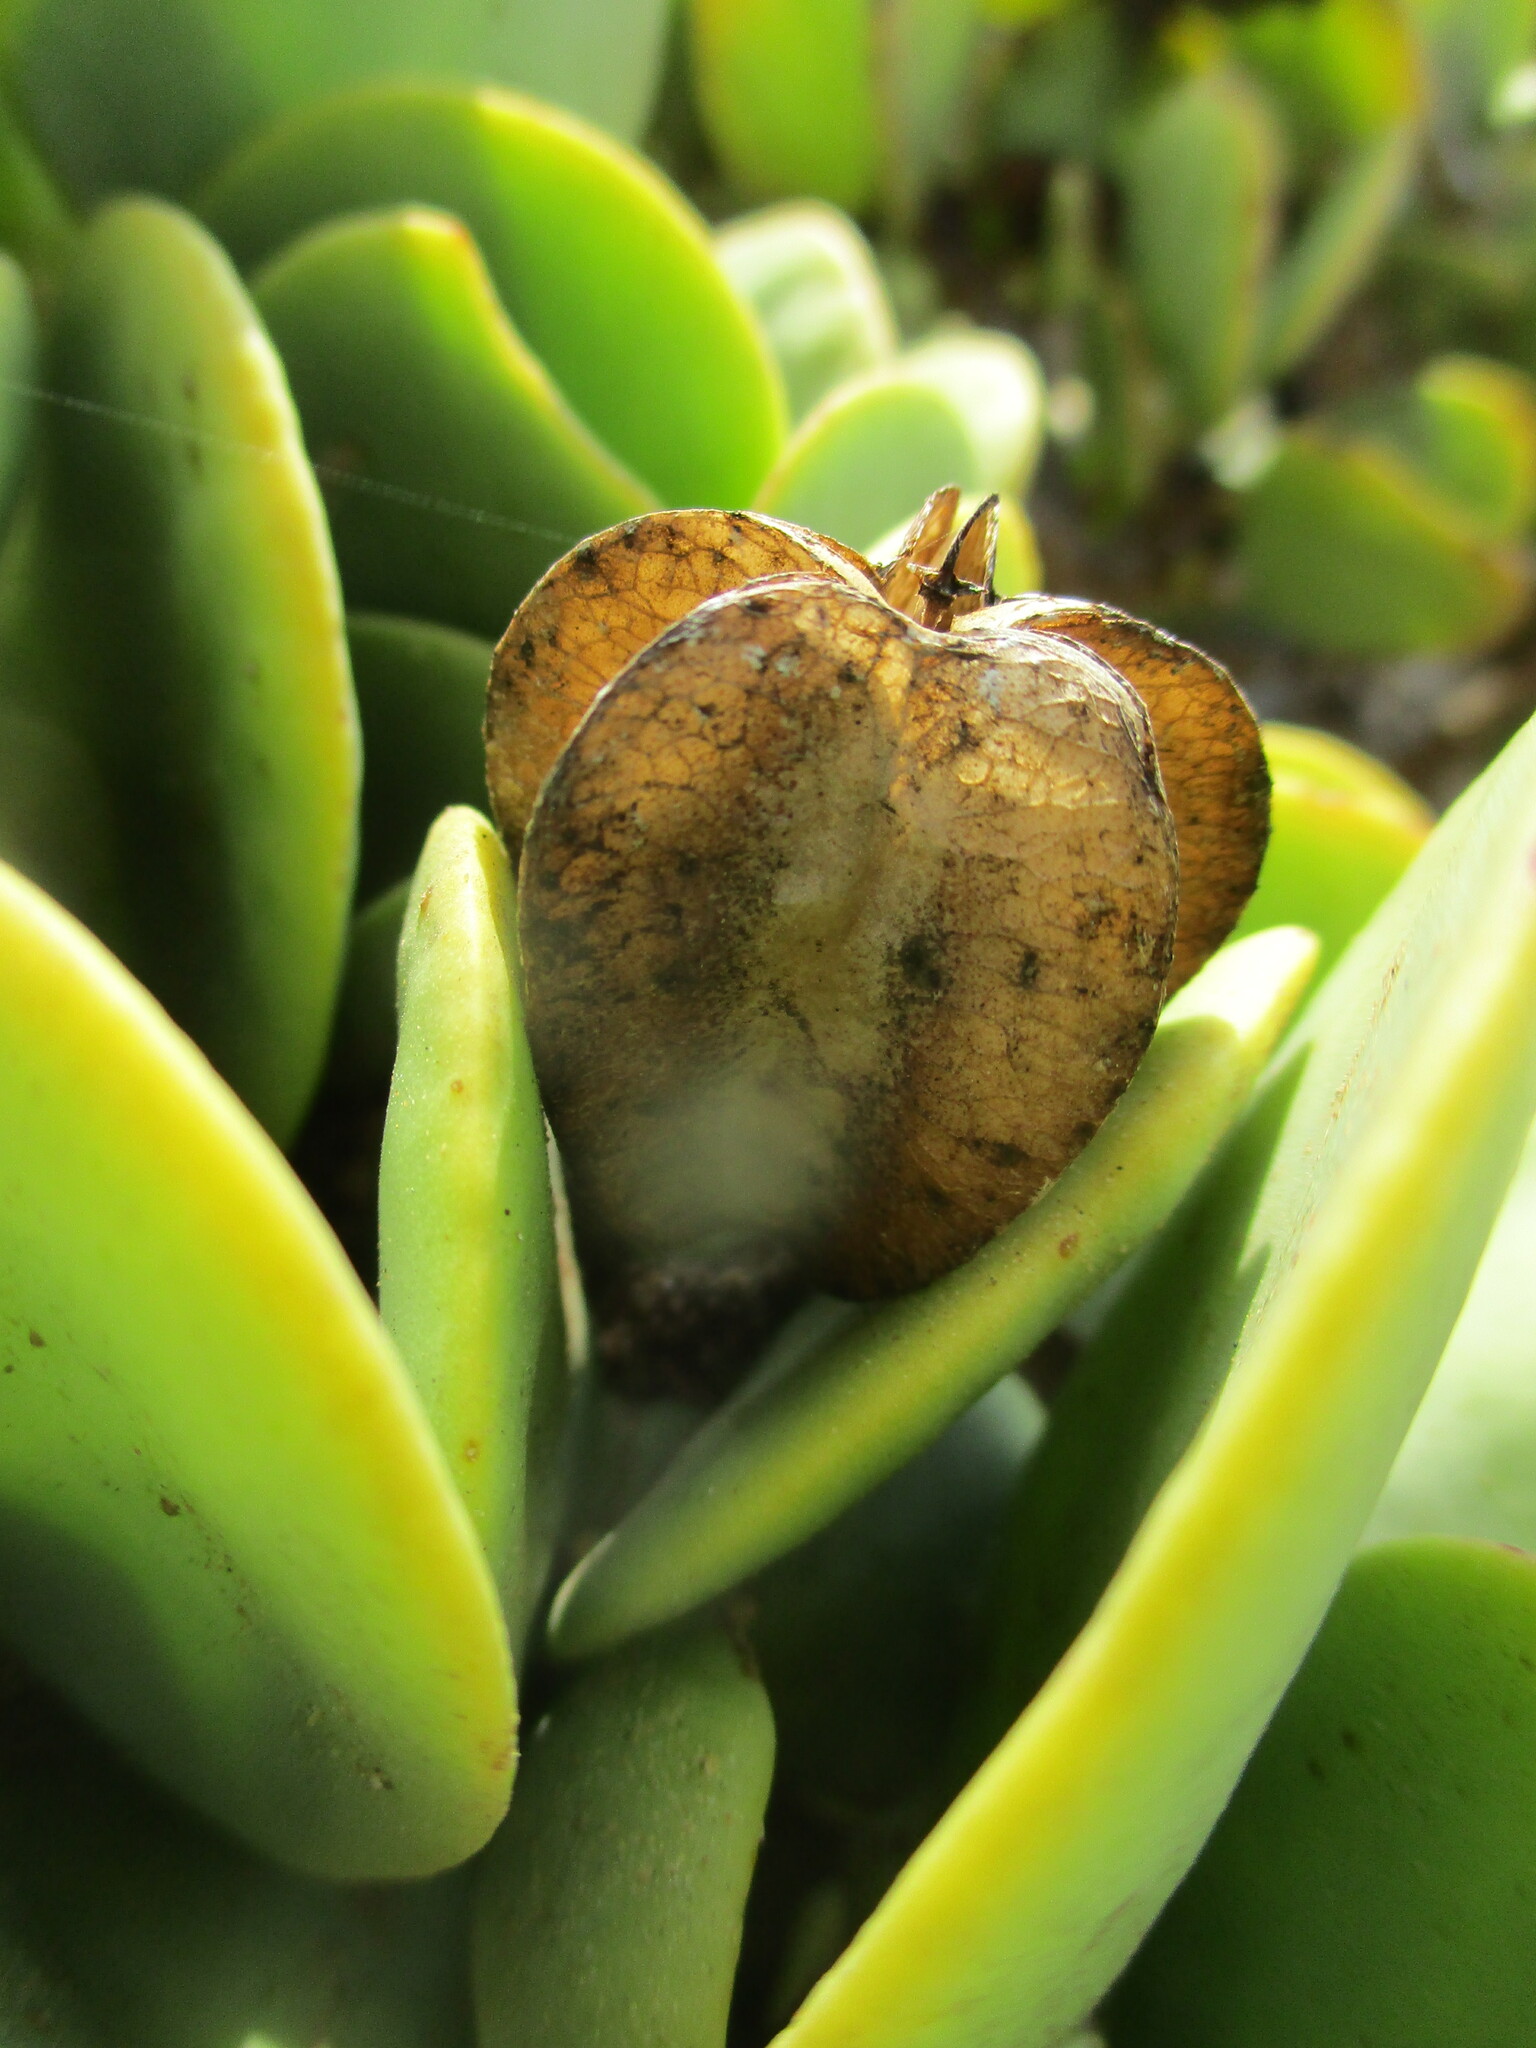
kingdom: Plantae
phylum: Tracheophyta
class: Magnoliopsida
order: Zygophyllales
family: Zygophyllaceae
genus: Tetraena
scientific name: Tetraena stapfii
